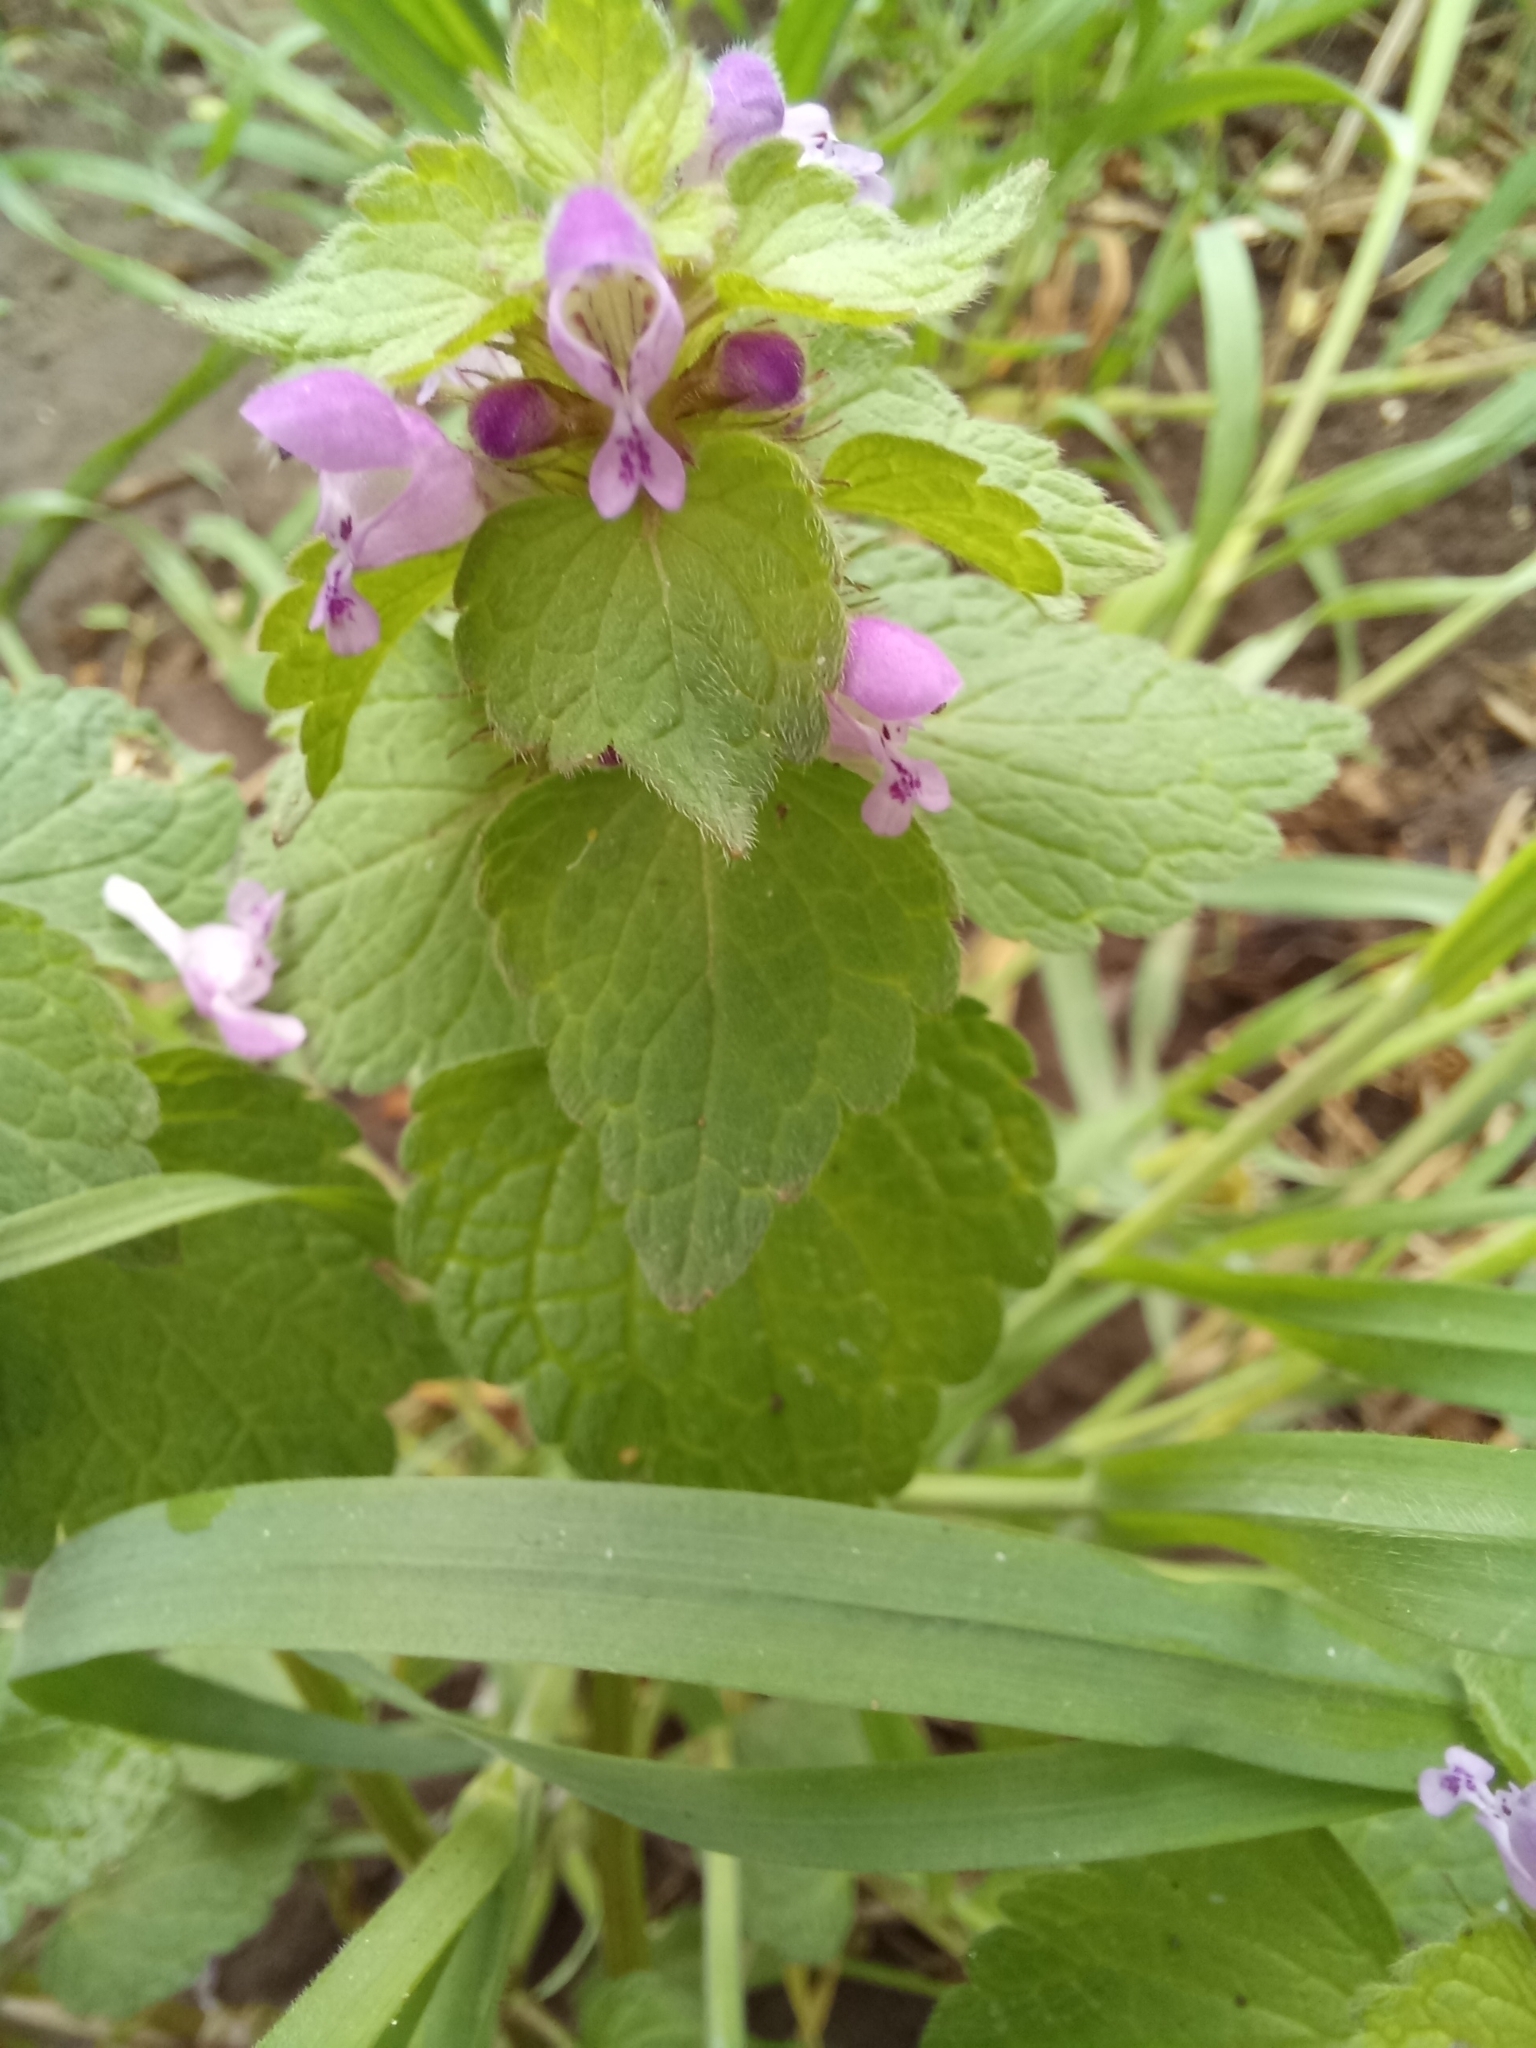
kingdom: Plantae
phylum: Tracheophyta
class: Magnoliopsida
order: Lamiales
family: Lamiaceae
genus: Lamium
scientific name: Lamium purpureum
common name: Red dead-nettle
